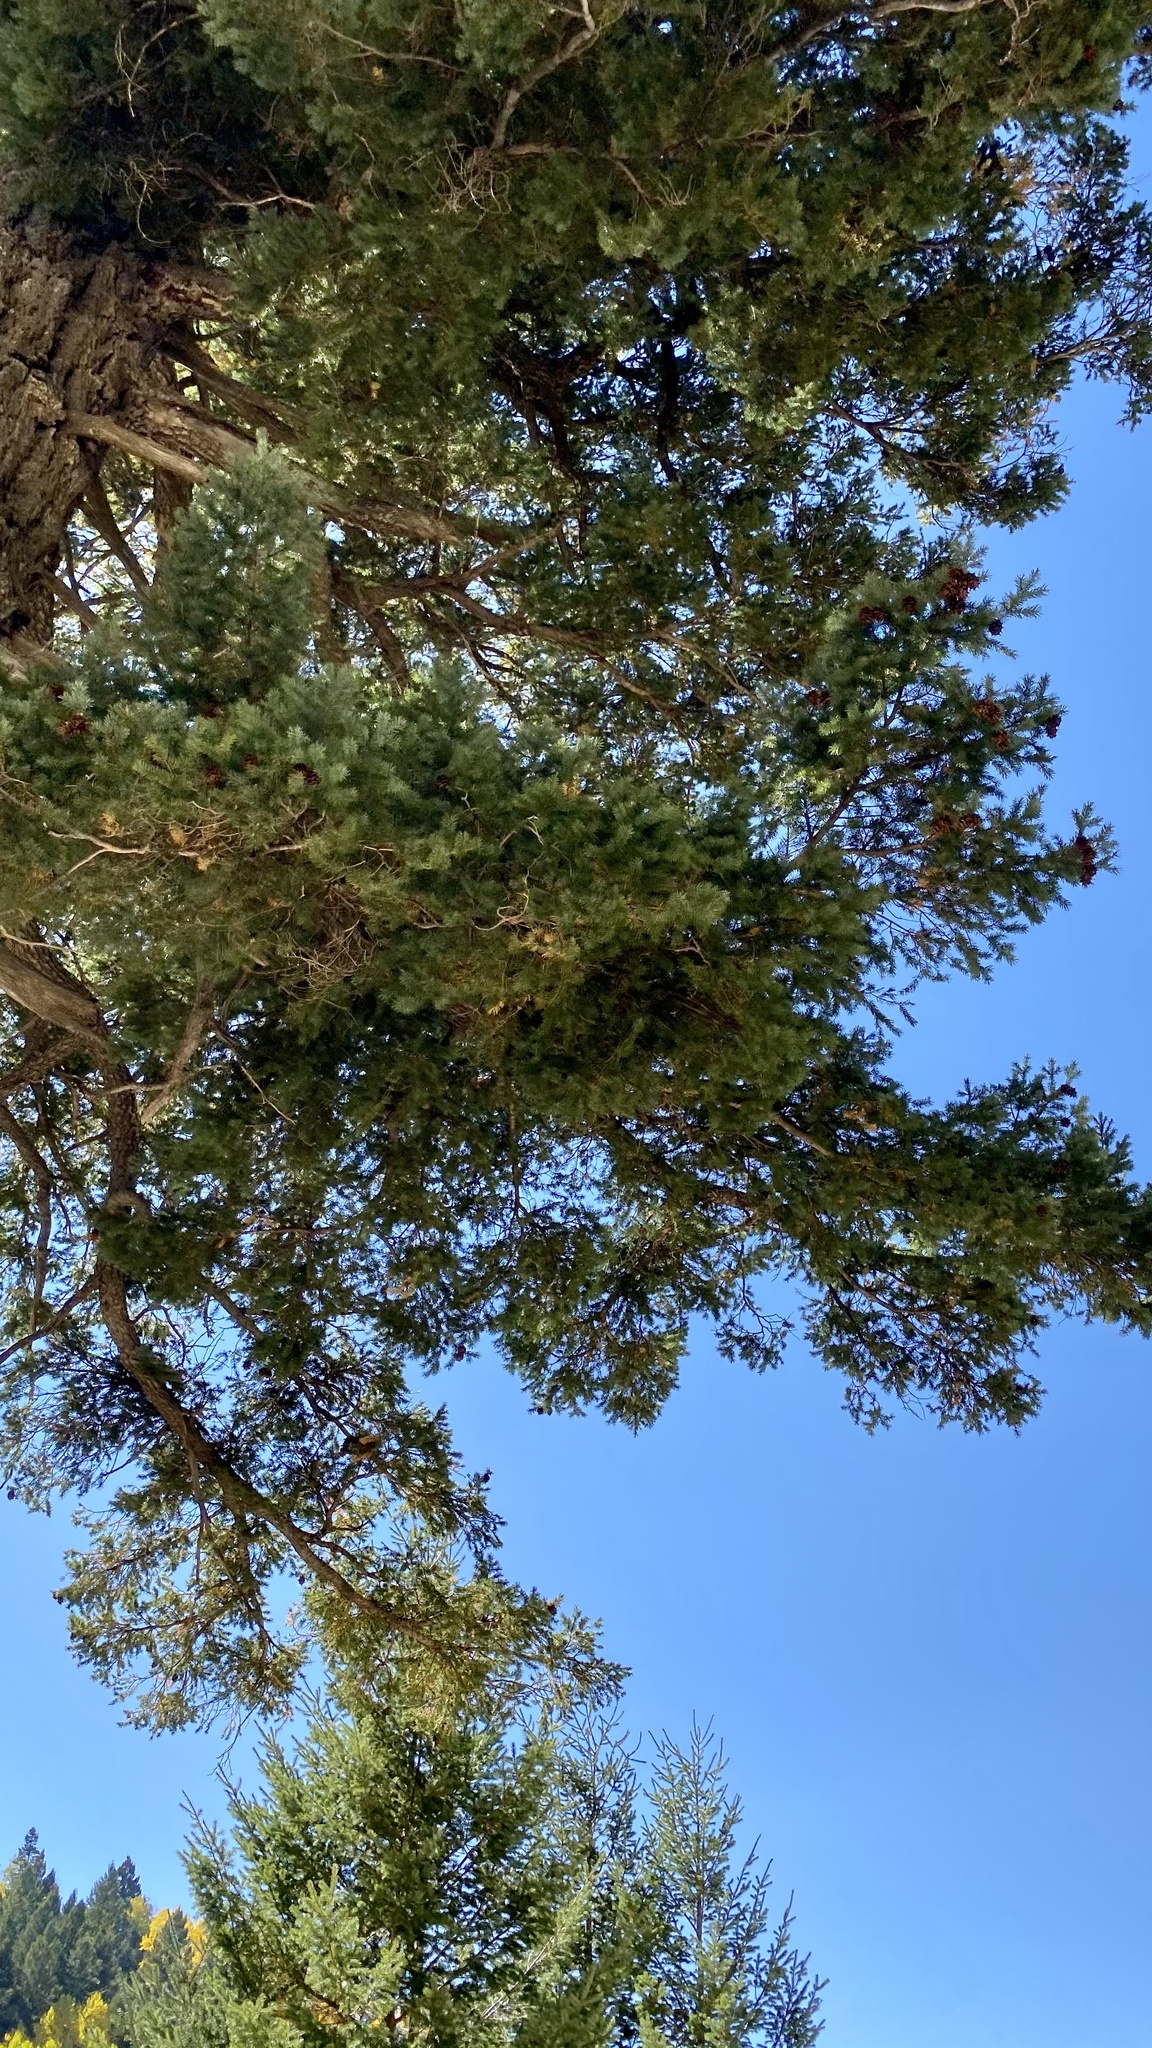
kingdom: Plantae
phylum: Tracheophyta
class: Pinopsida
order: Pinales
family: Pinaceae
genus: Pseudotsuga
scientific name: Pseudotsuga menziesii
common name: Douglas fir
